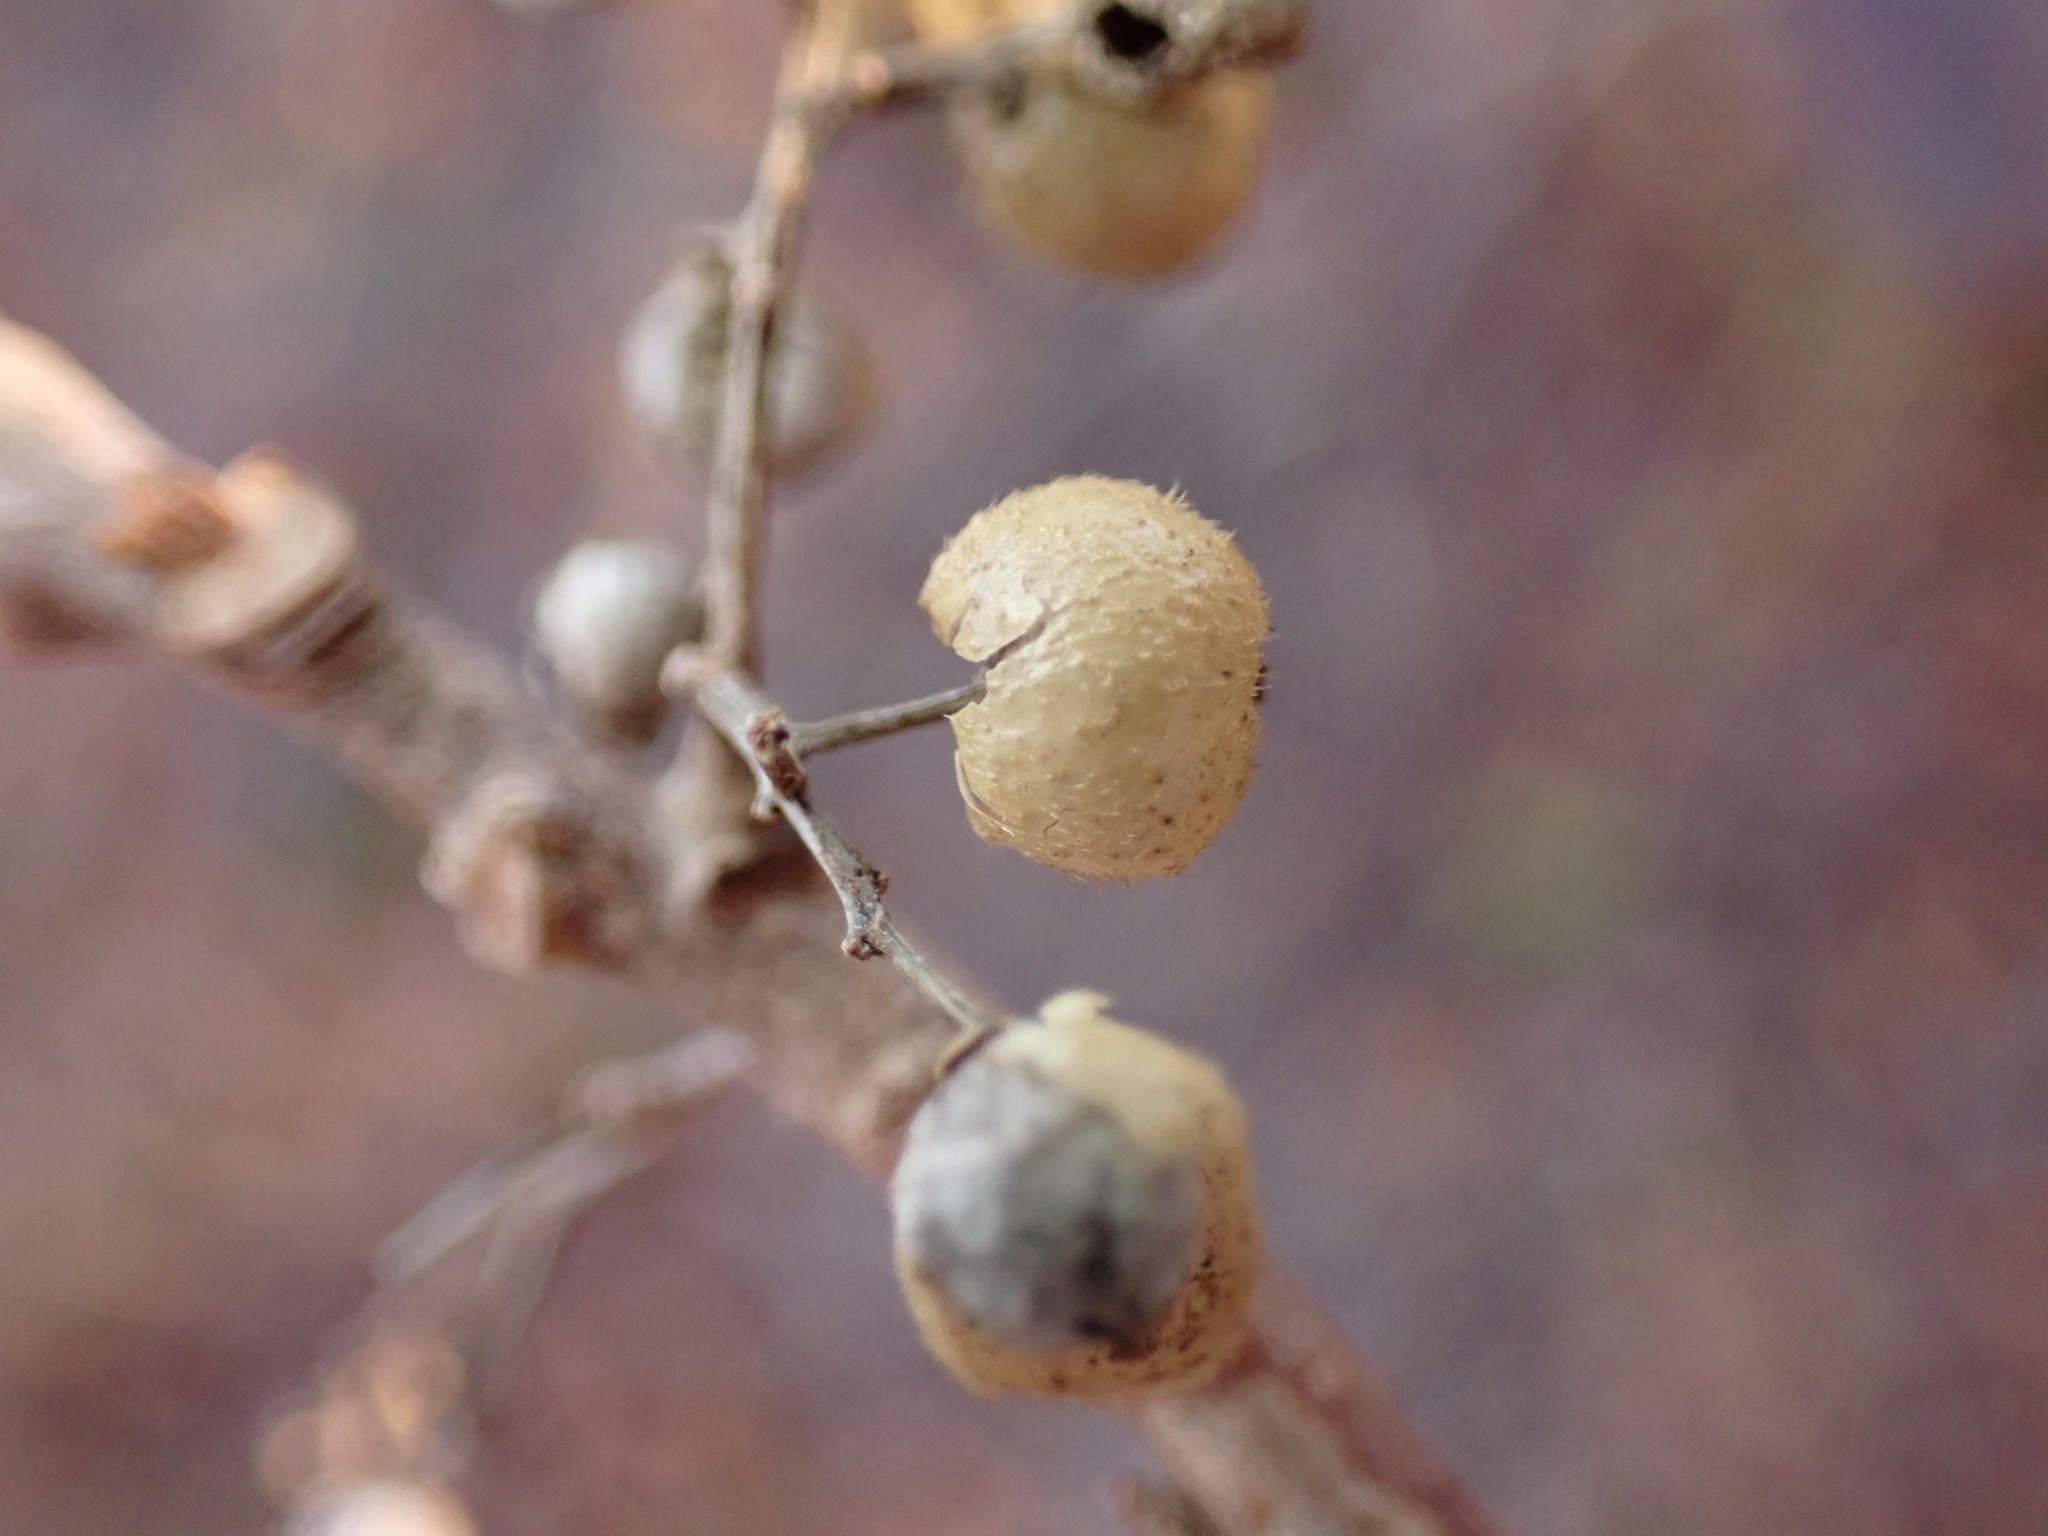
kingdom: Plantae
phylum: Tracheophyta
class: Magnoliopsida
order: Sapindales
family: Anacardiaceae
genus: Toxicodendron
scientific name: Toxicodendron radicans
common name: Poison ivy
